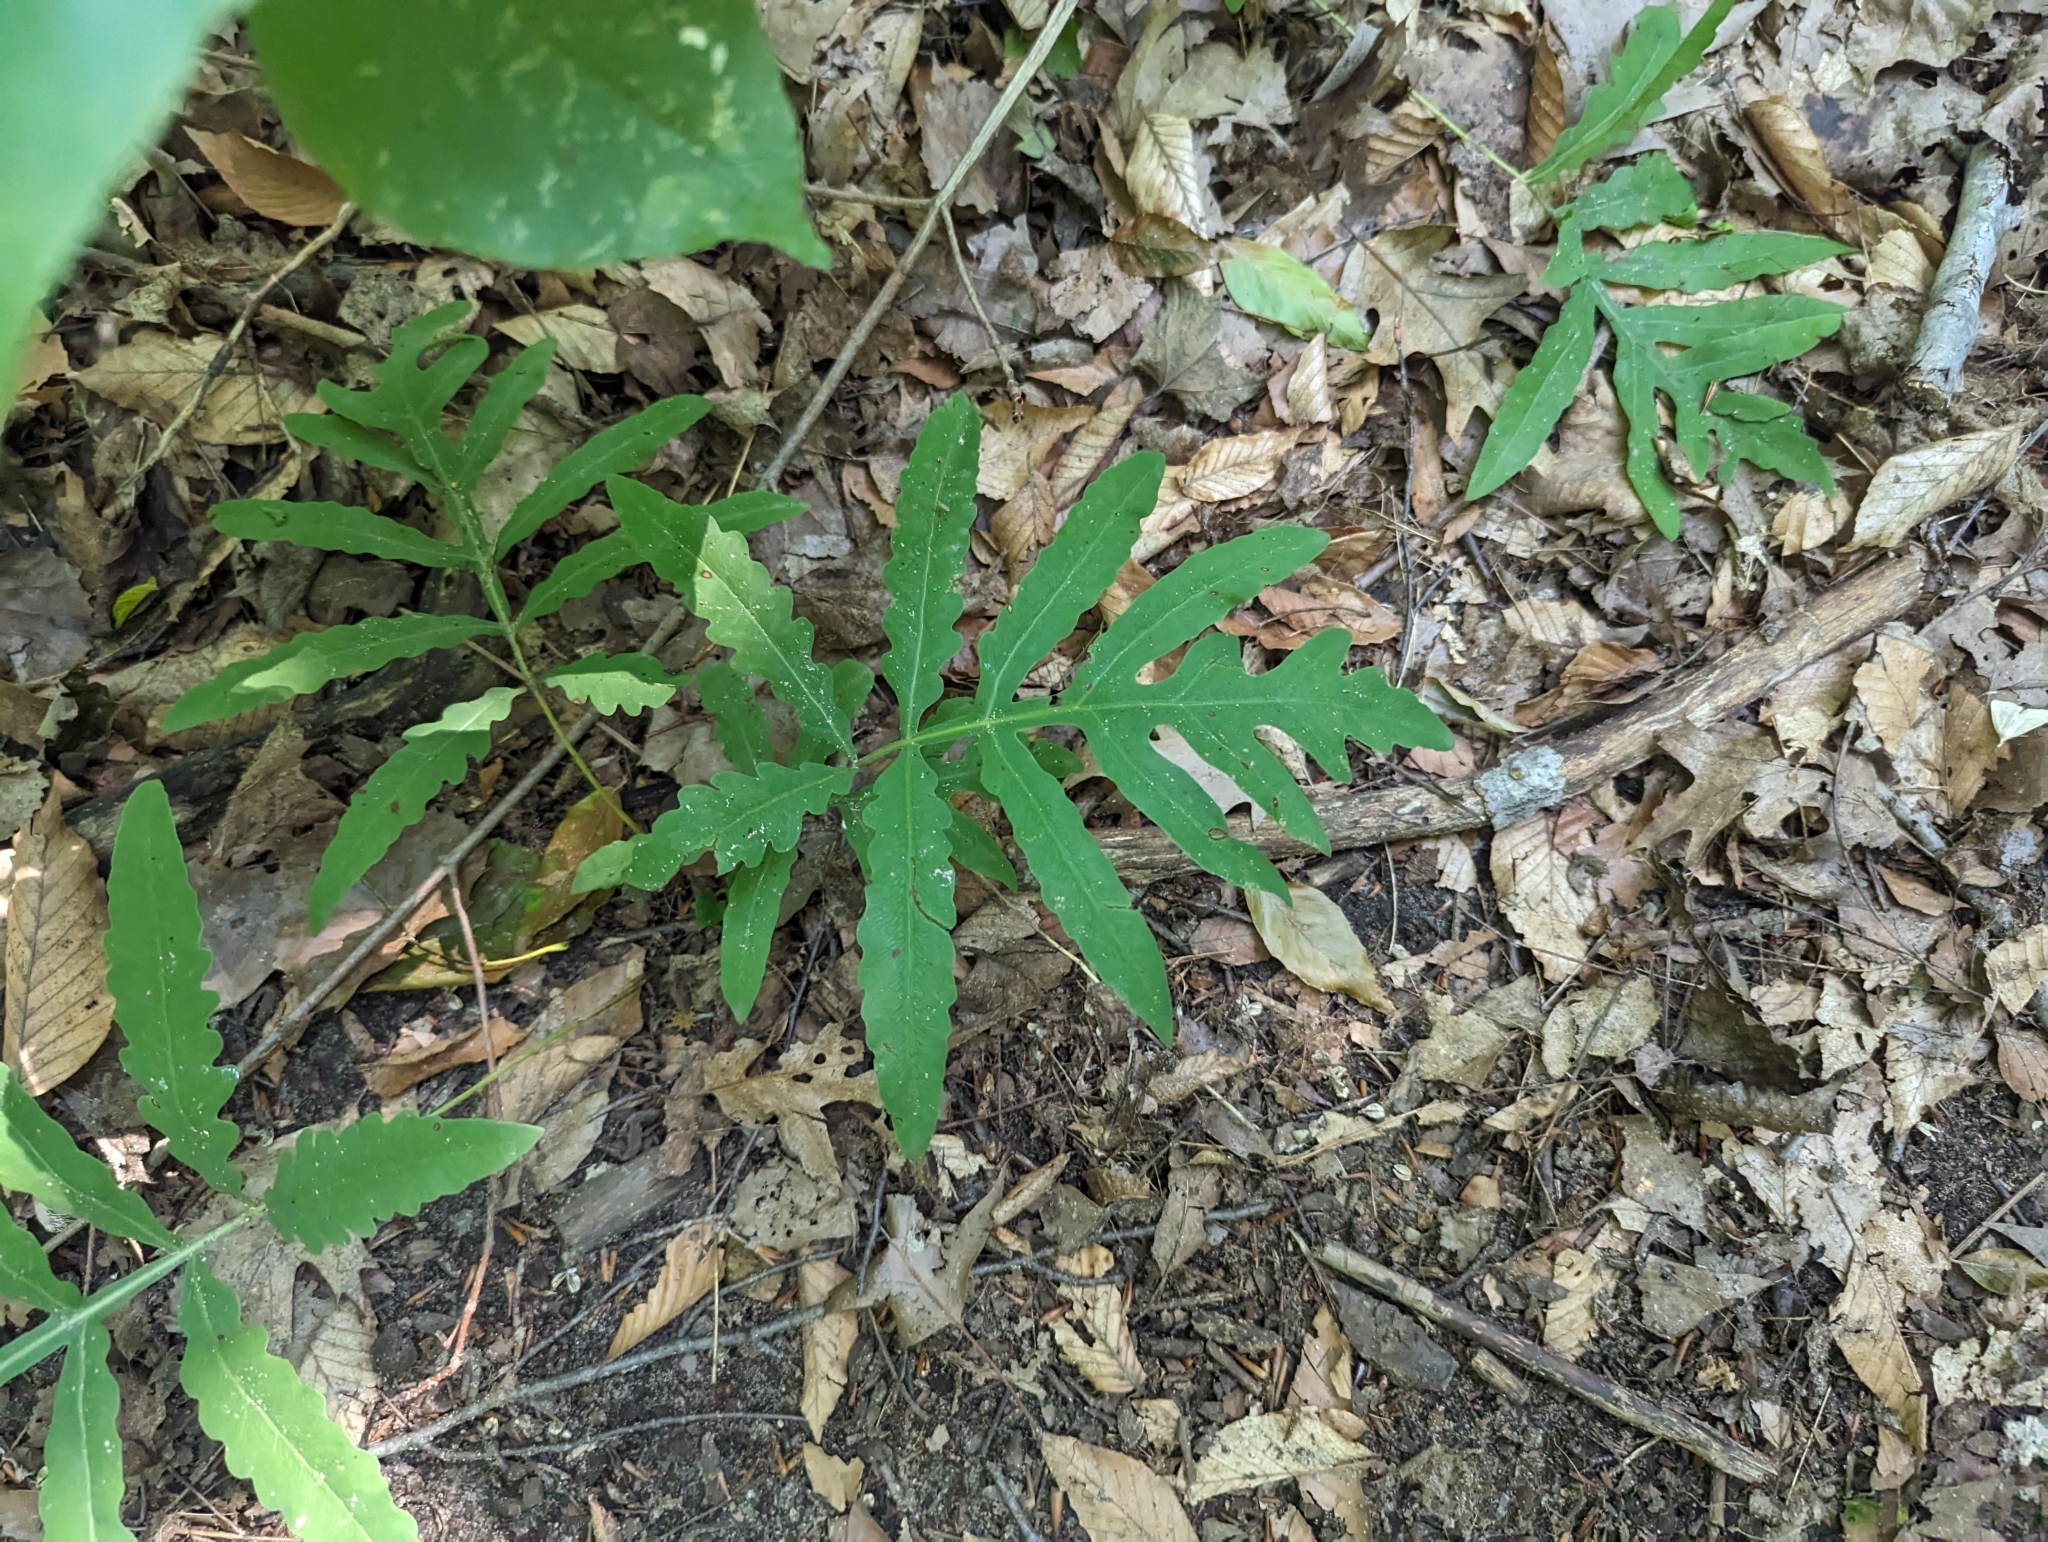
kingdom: Plantae
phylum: Tracheophyta
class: Polypodiopsida
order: Polypodiales
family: Onocleaceae
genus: Onoclea
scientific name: Onoclea sensibilis
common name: Sensitive fern
